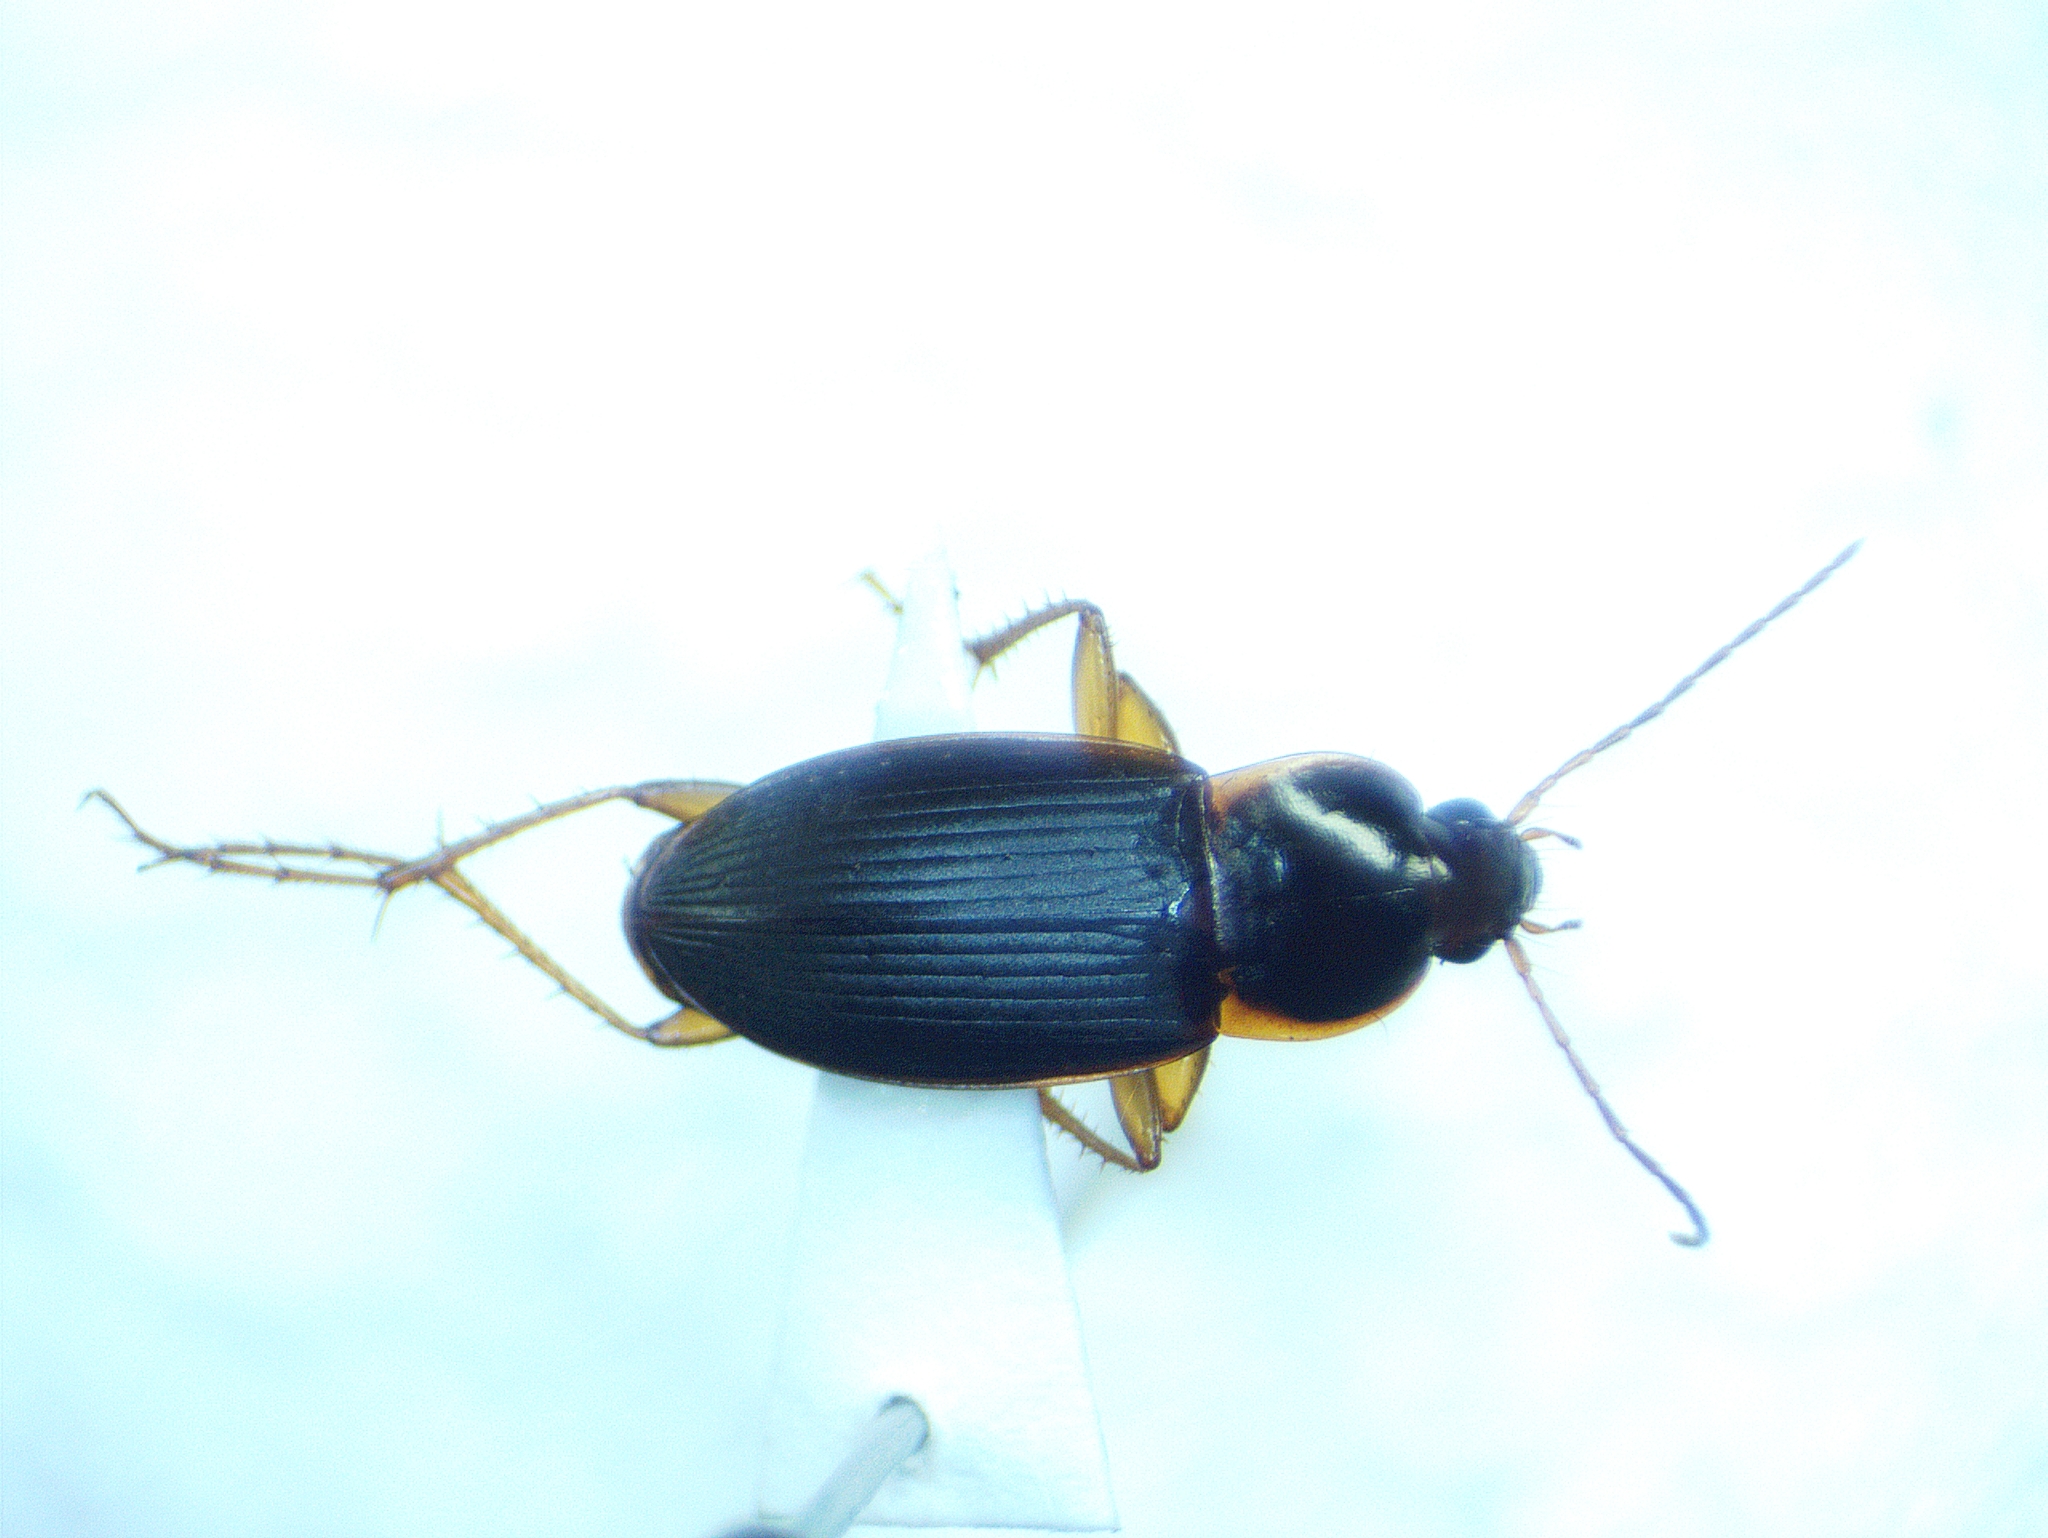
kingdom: Animalia
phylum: Arthropoda
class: Insecta
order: Coleoptera
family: Carabidae
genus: Calathus
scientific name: Calathus opaculus
